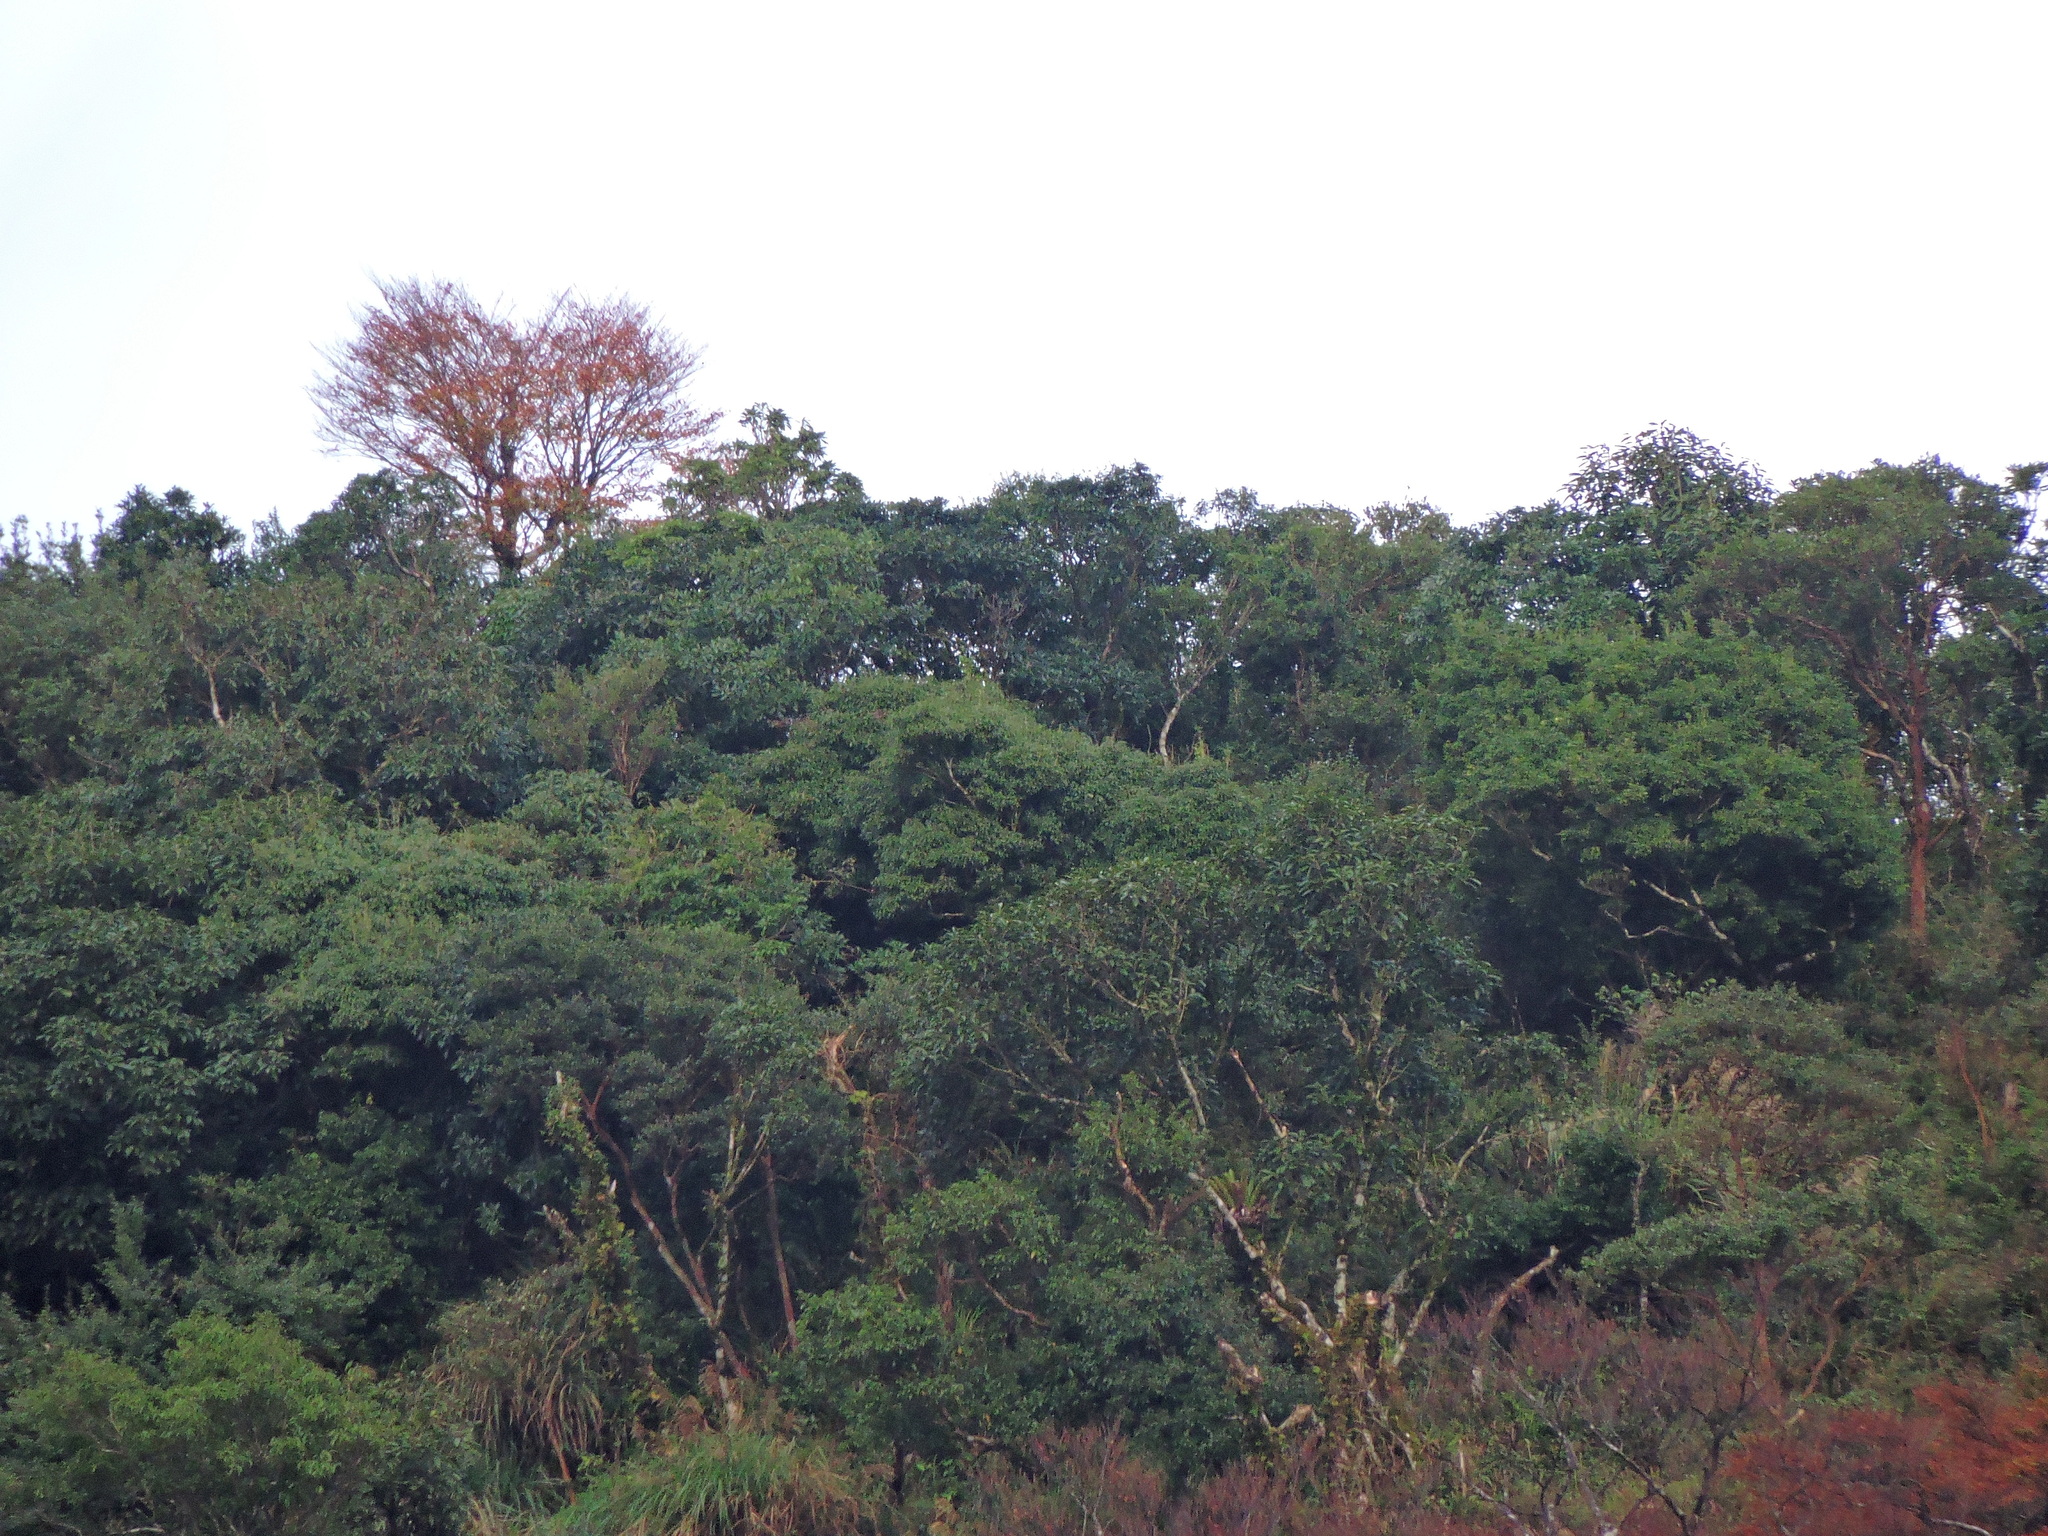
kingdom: Plantae
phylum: Tracheophyta
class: Magnoliopsida
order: Fagales
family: Fagaceae
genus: Fagus
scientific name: Fagus hayatae
